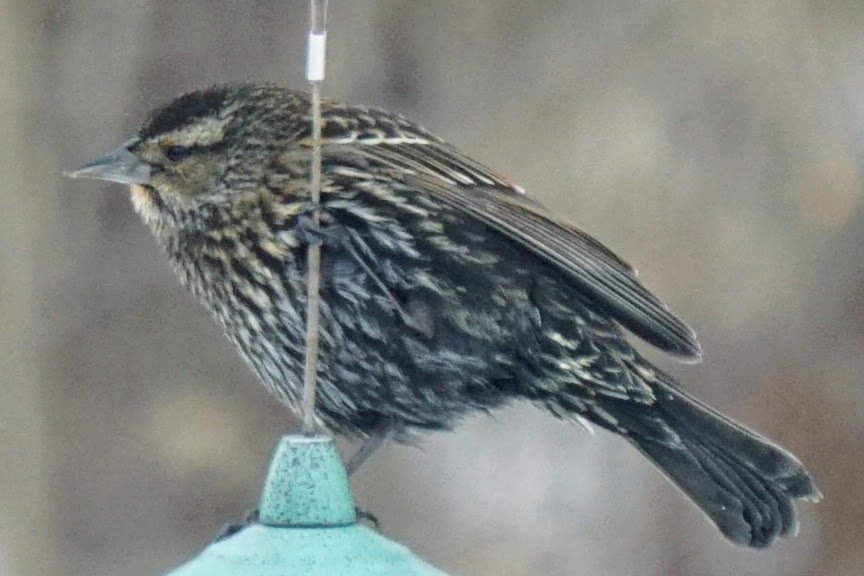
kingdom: Animalia
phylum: Chordata
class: Aves
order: Passeriformes
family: Icteridae
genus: Agelaius
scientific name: Agelaius phoeniceus
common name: Red-winged blackbird
